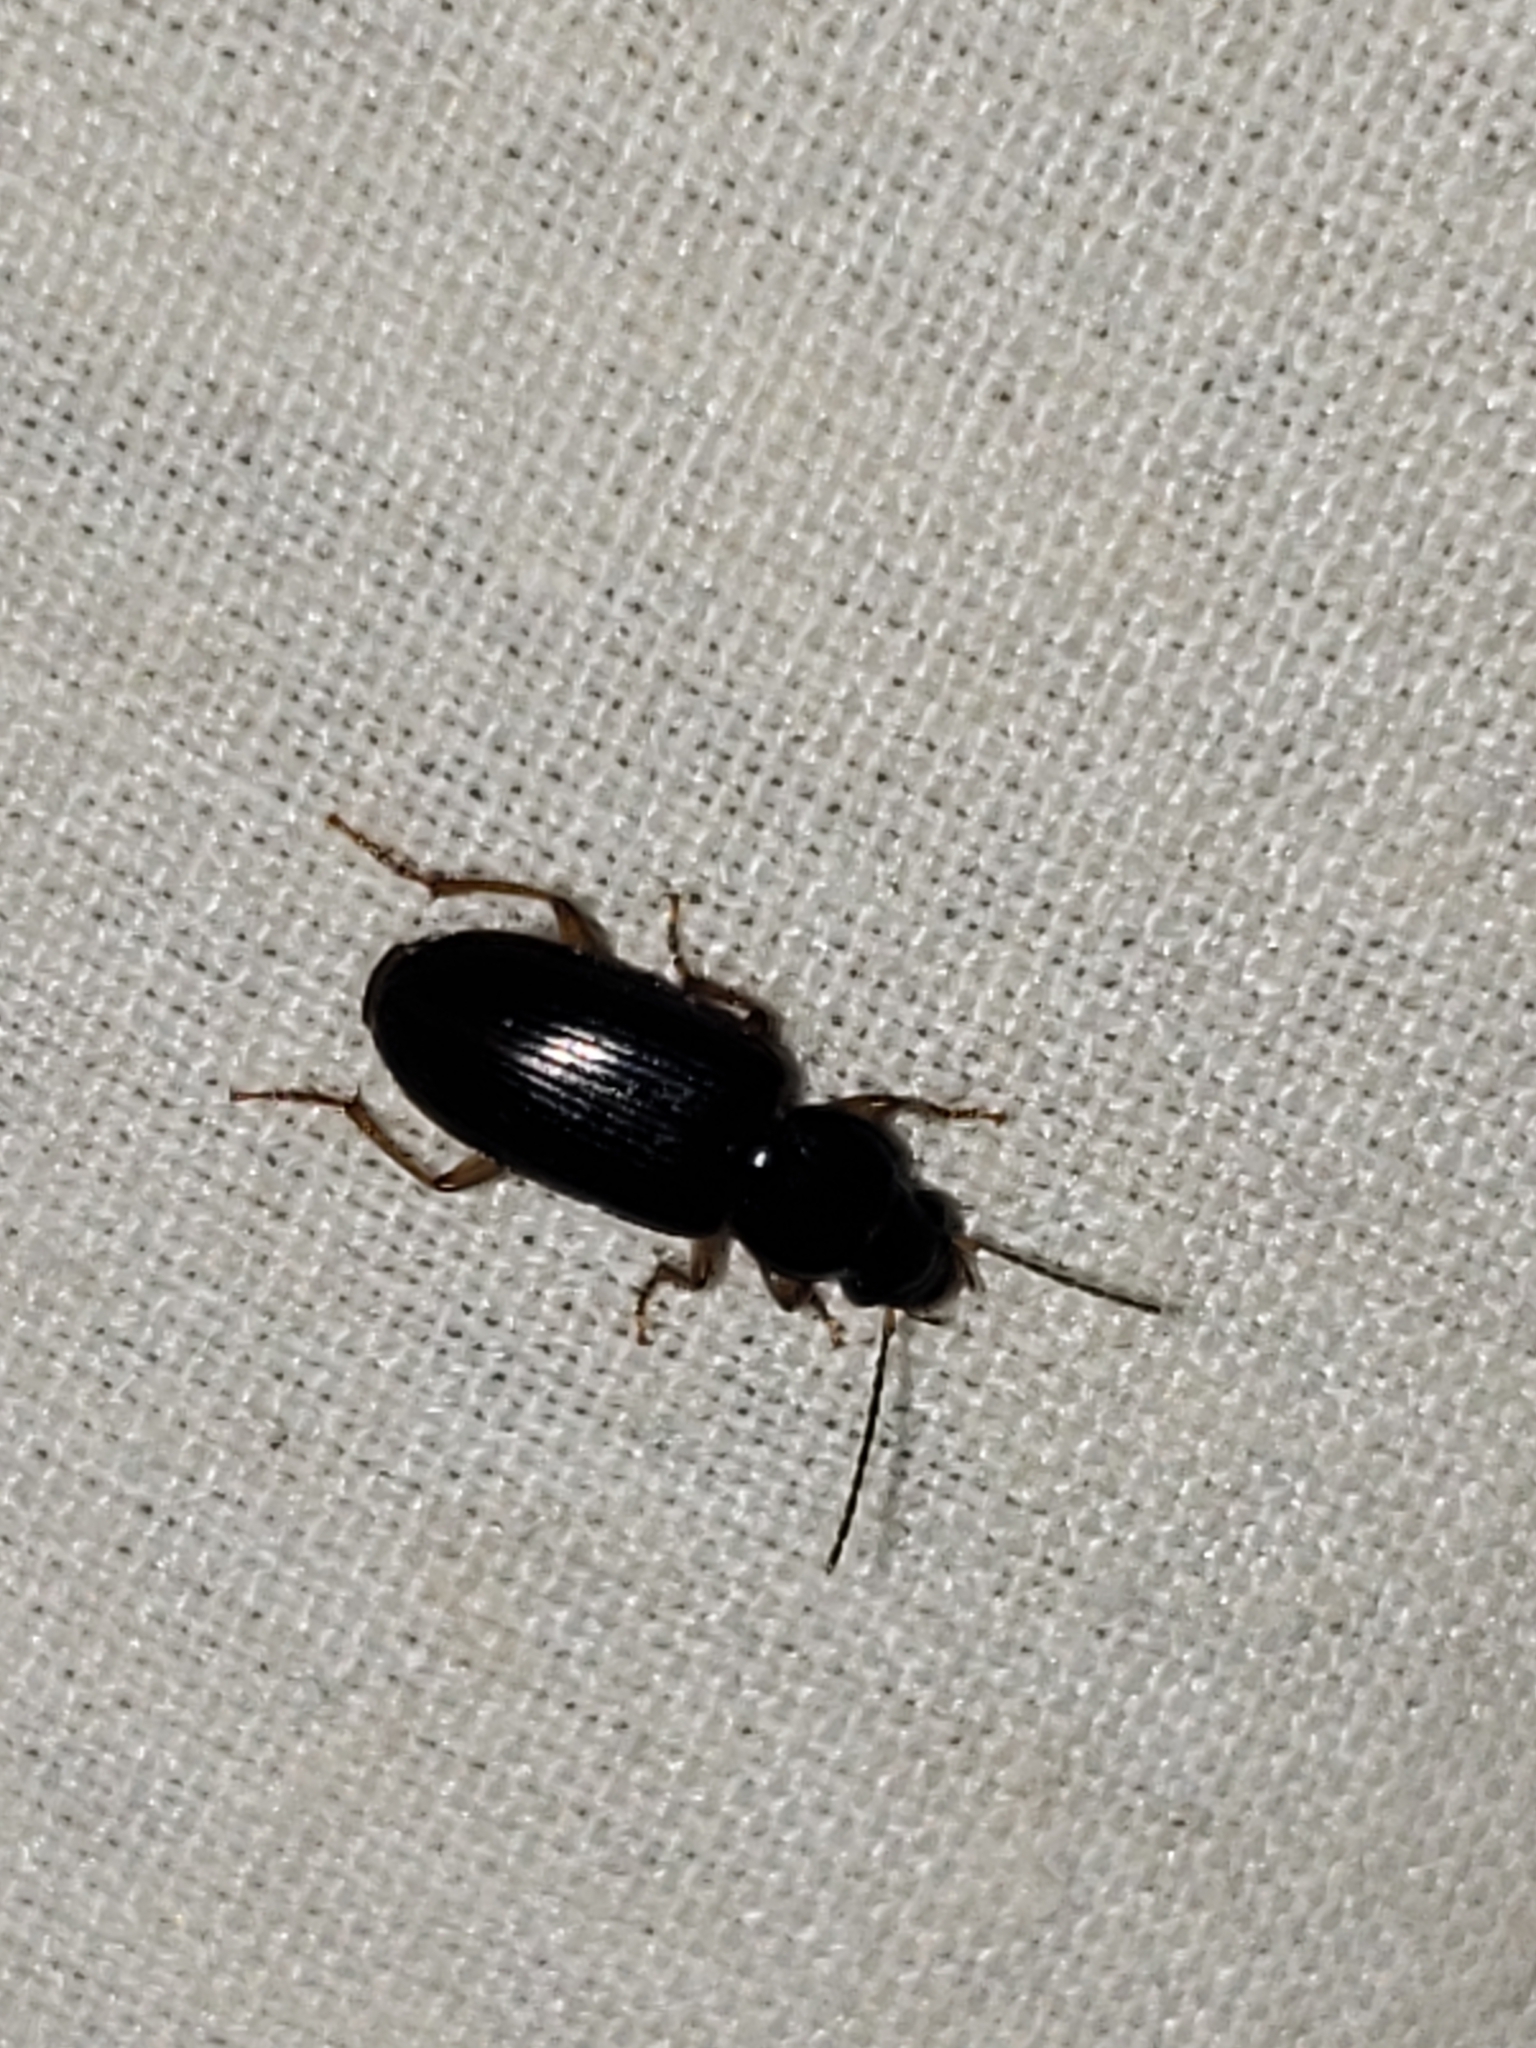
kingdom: Animalia
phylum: Arthropoda
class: Insecta
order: Coleoptera
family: Carabidae
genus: Stenolophus
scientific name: Stenolophus ochropezus
